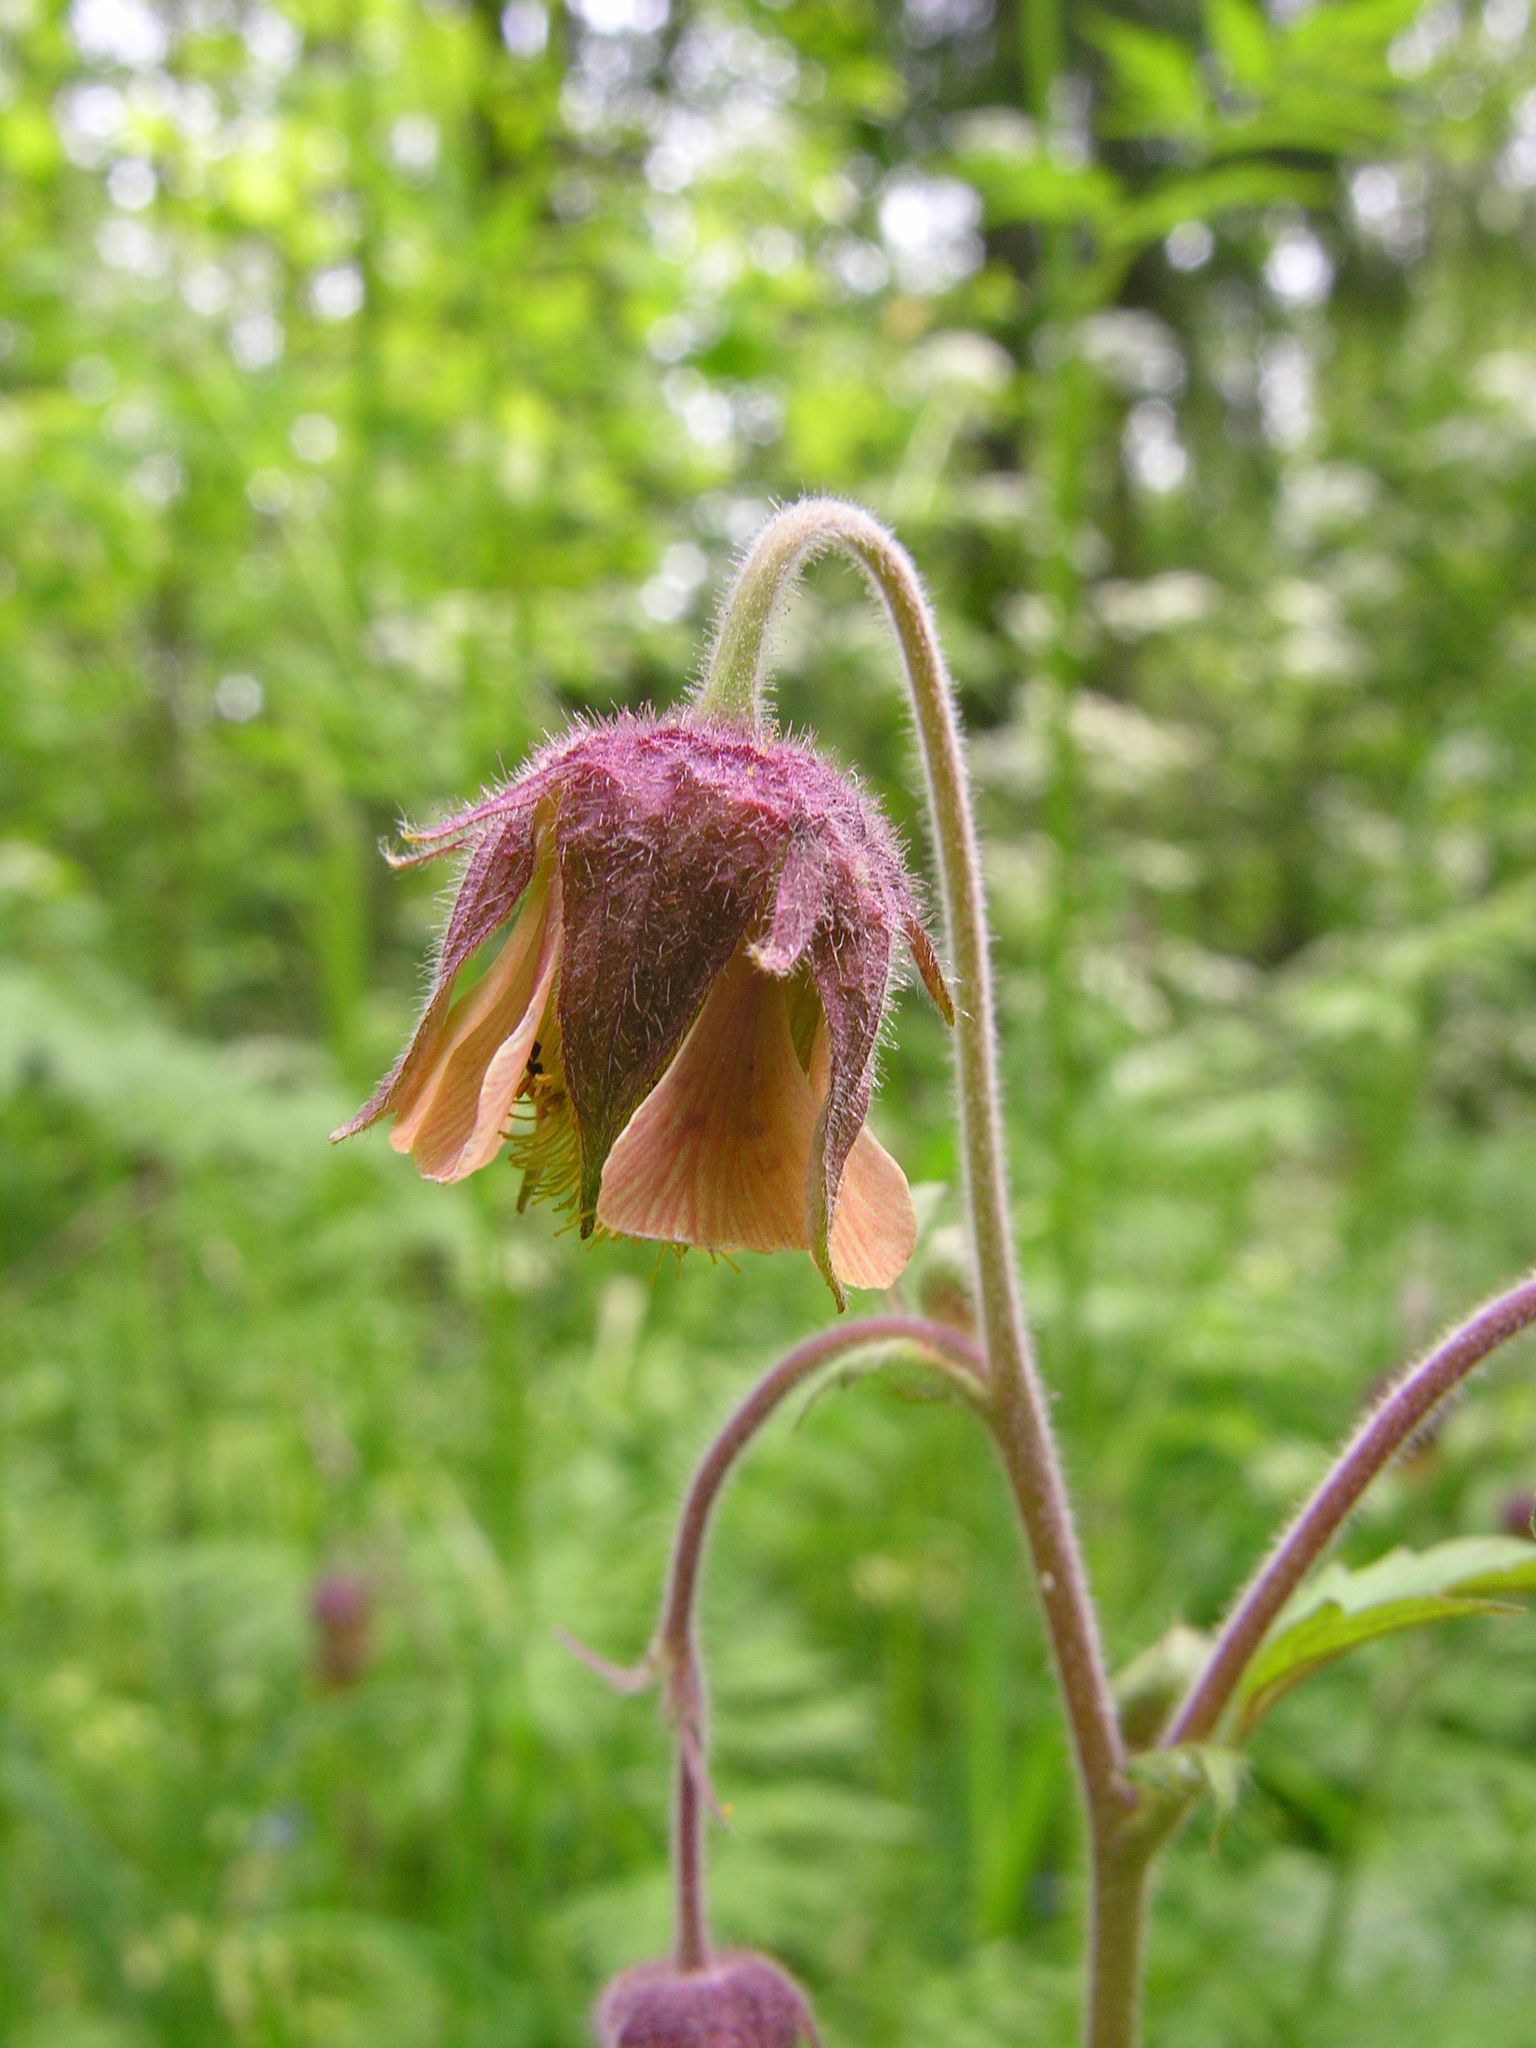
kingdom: Plantae
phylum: Tracheophyta
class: Magnoliopsida
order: Rosales
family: Rosaceae
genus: Geum
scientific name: Geum rivale
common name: Water avens
